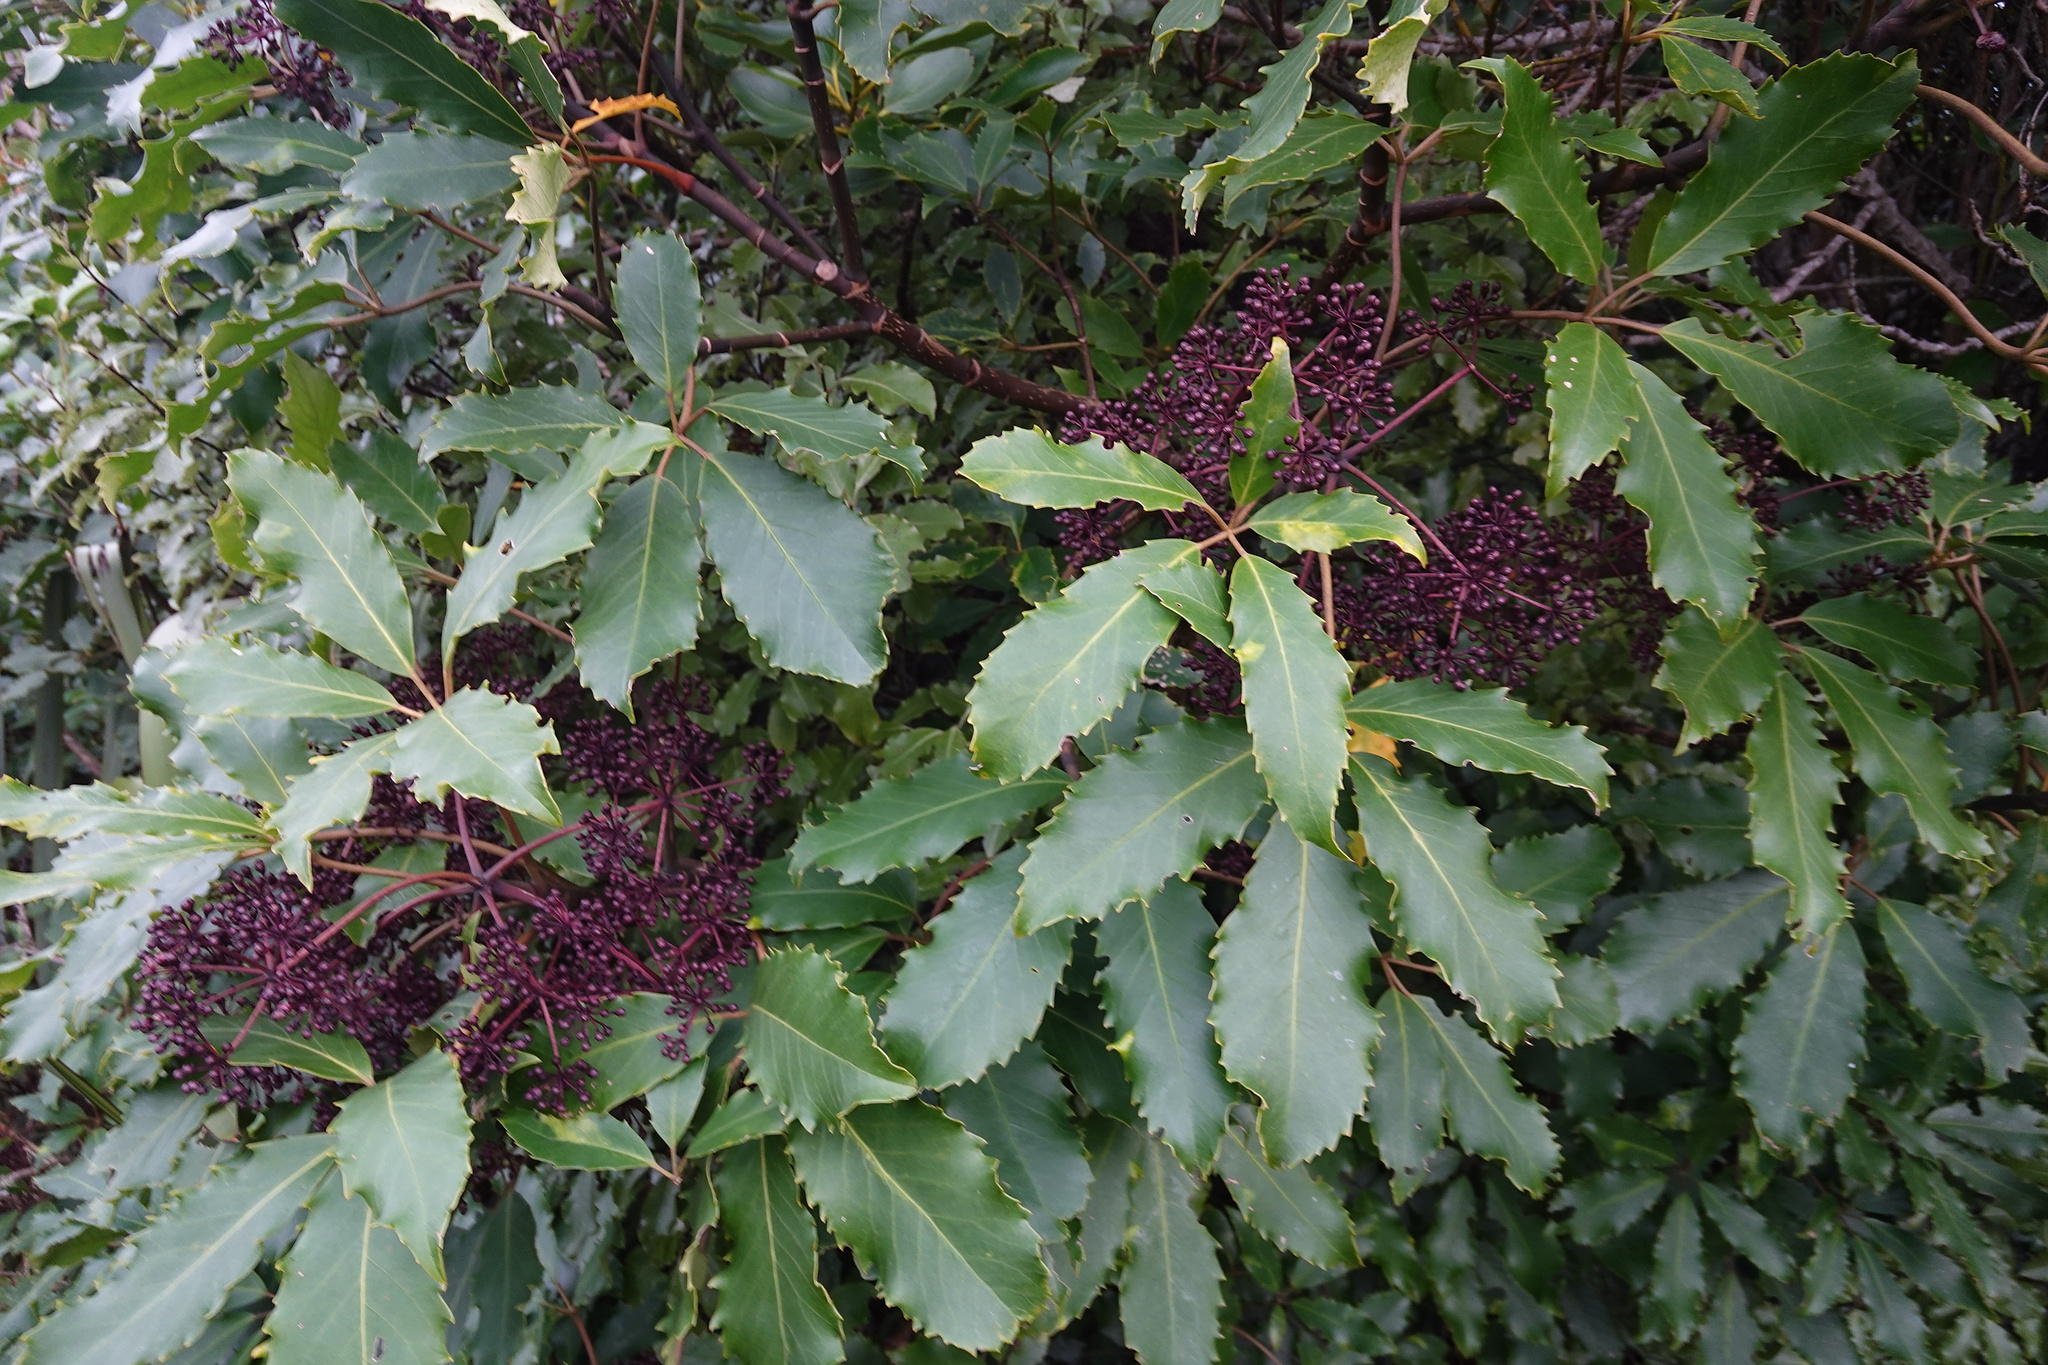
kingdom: Plantae
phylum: Tracheophyta
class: Magnoliopsida
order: Apiales
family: Araliaceae
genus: Neopanax
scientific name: Neopanax arboreus
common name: Five-fingers
